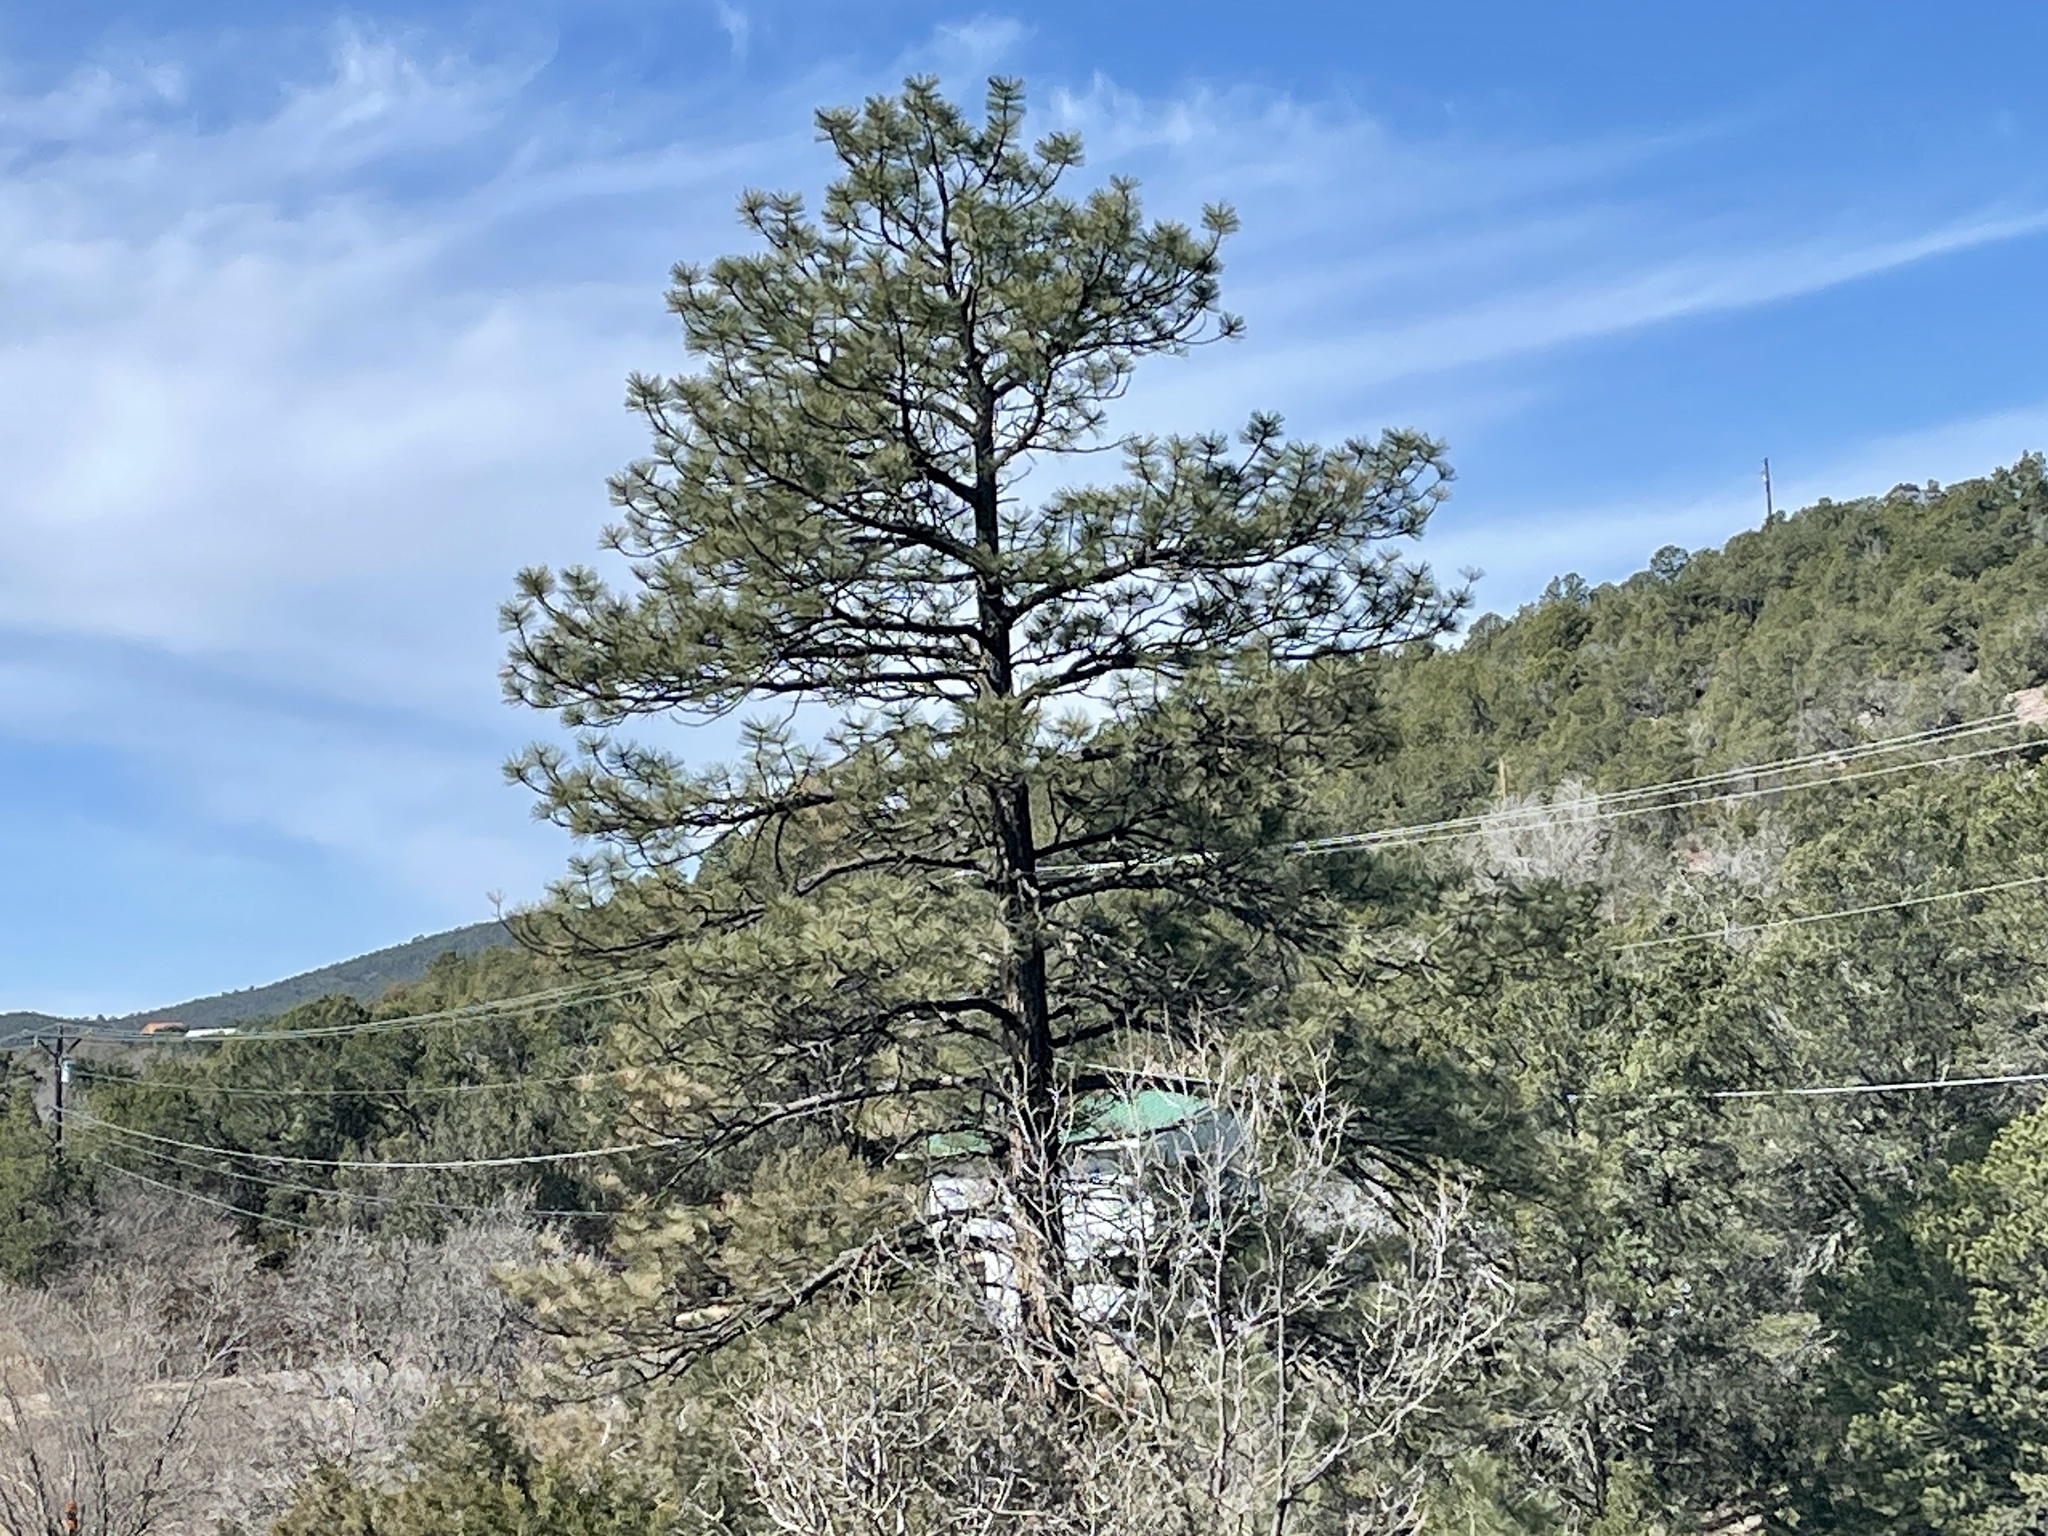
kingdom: Plantae
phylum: Tracheophyta
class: Pinopsida
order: Pinales
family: Pinaceae
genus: Pinus
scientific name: Pinus ponderosa
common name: Western yellow-pine
